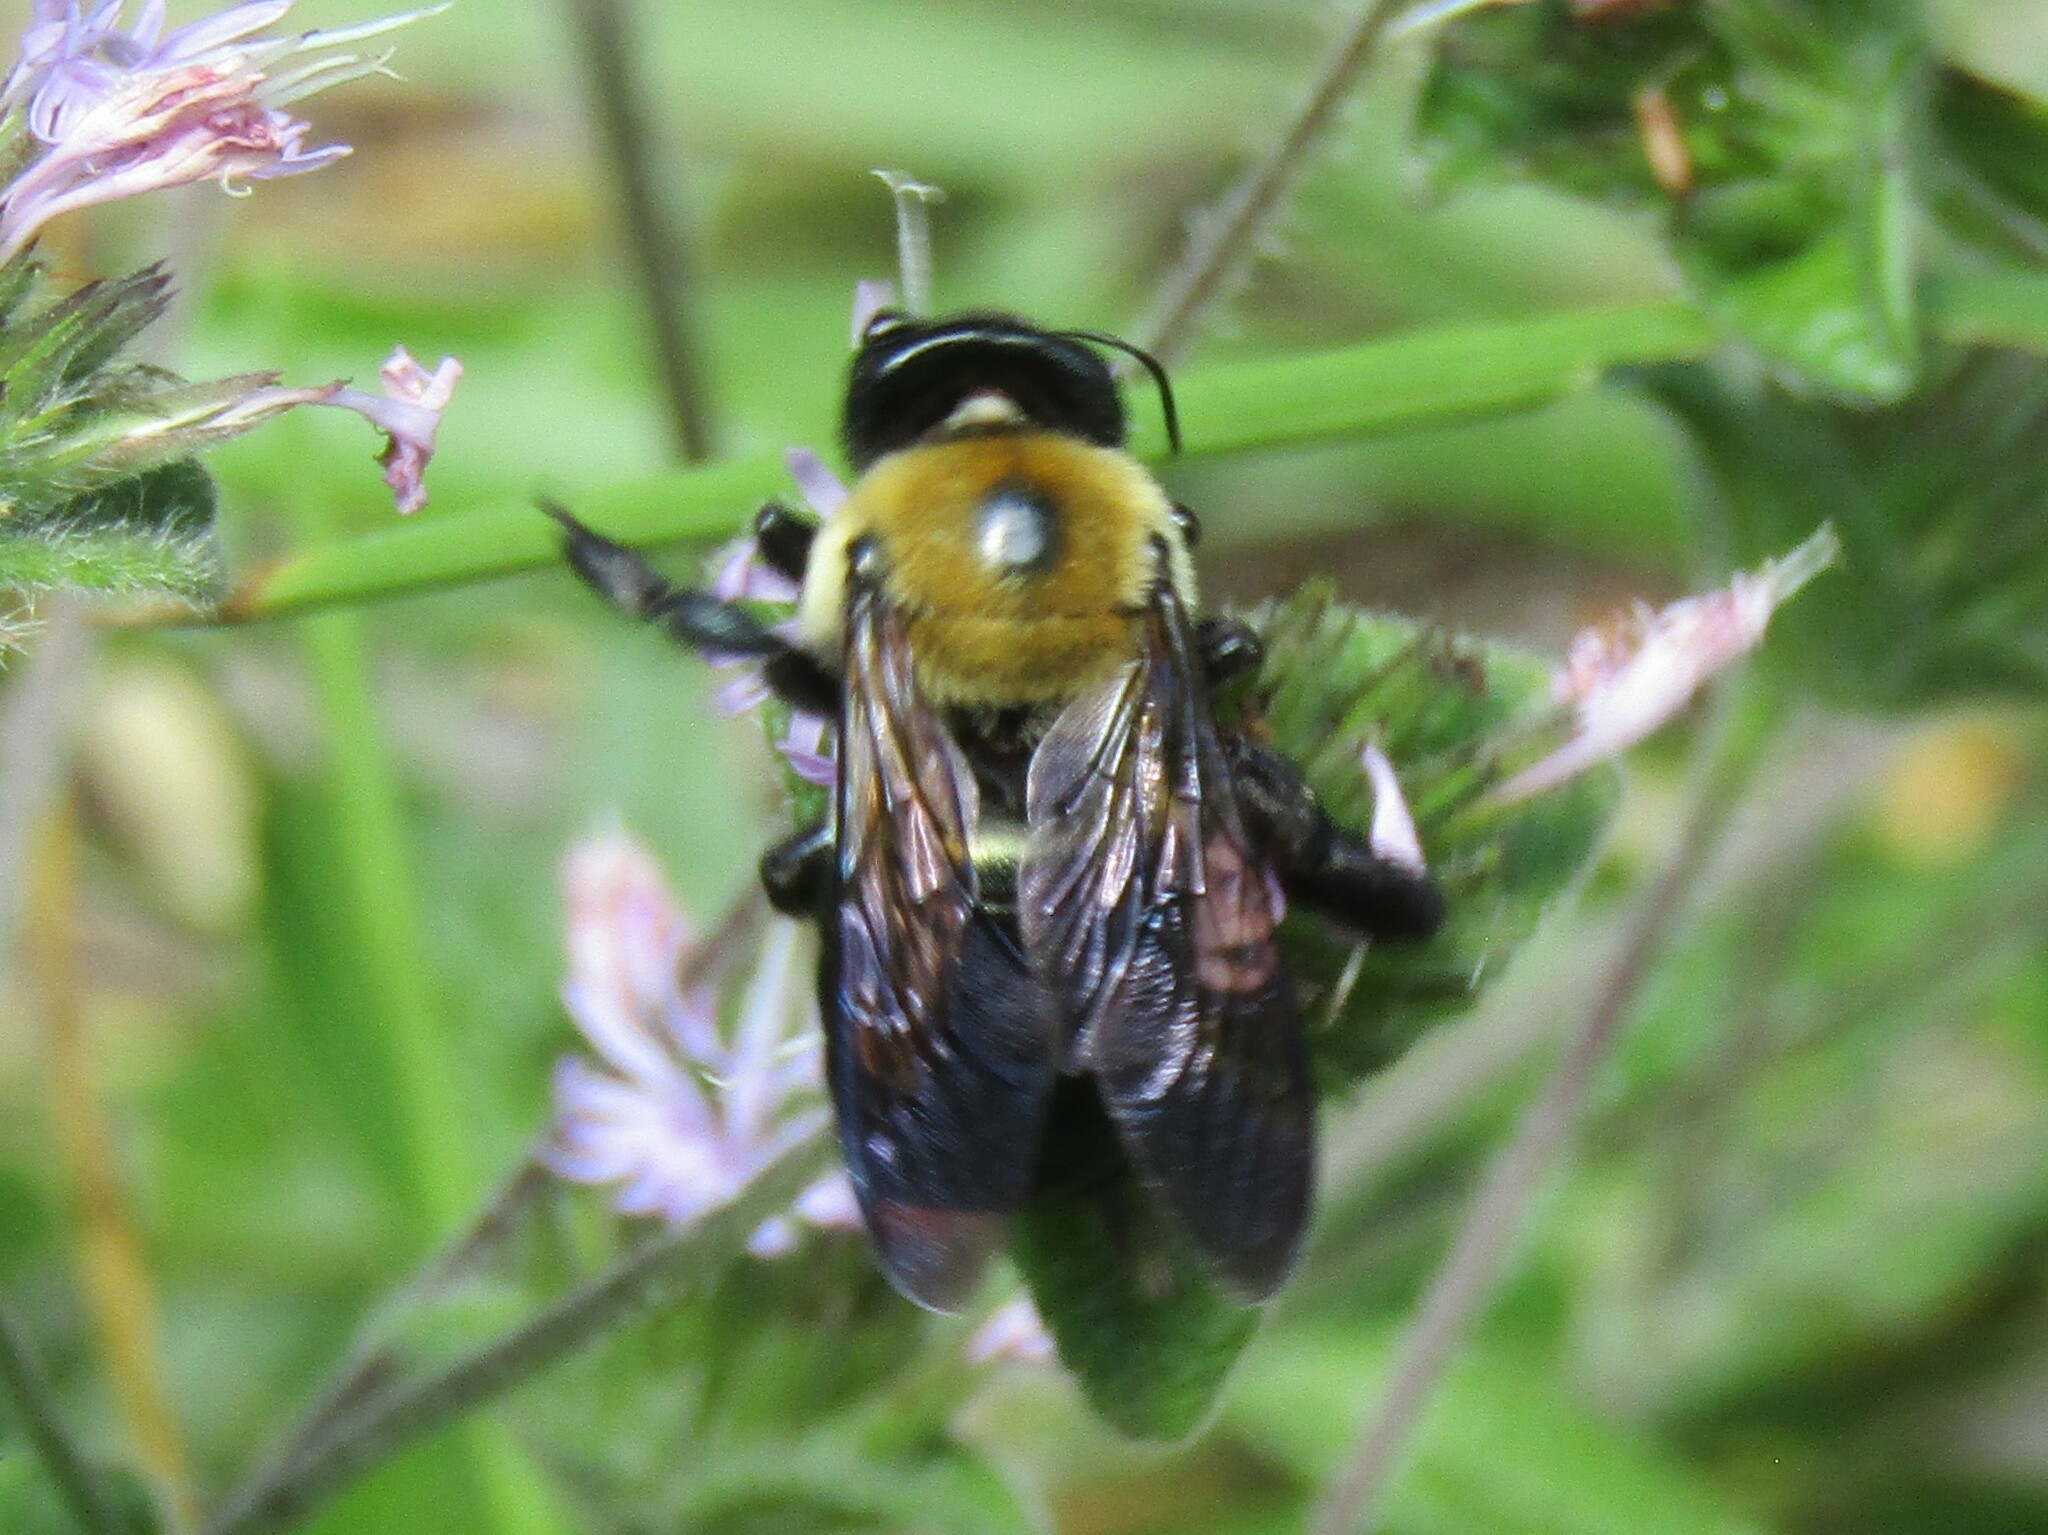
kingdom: Animalia
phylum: Arthropoda
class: Insecta
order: Hymenoptera
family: Apidae
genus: Xylocopa
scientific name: Xylocopa virginica
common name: Carpenter bee
